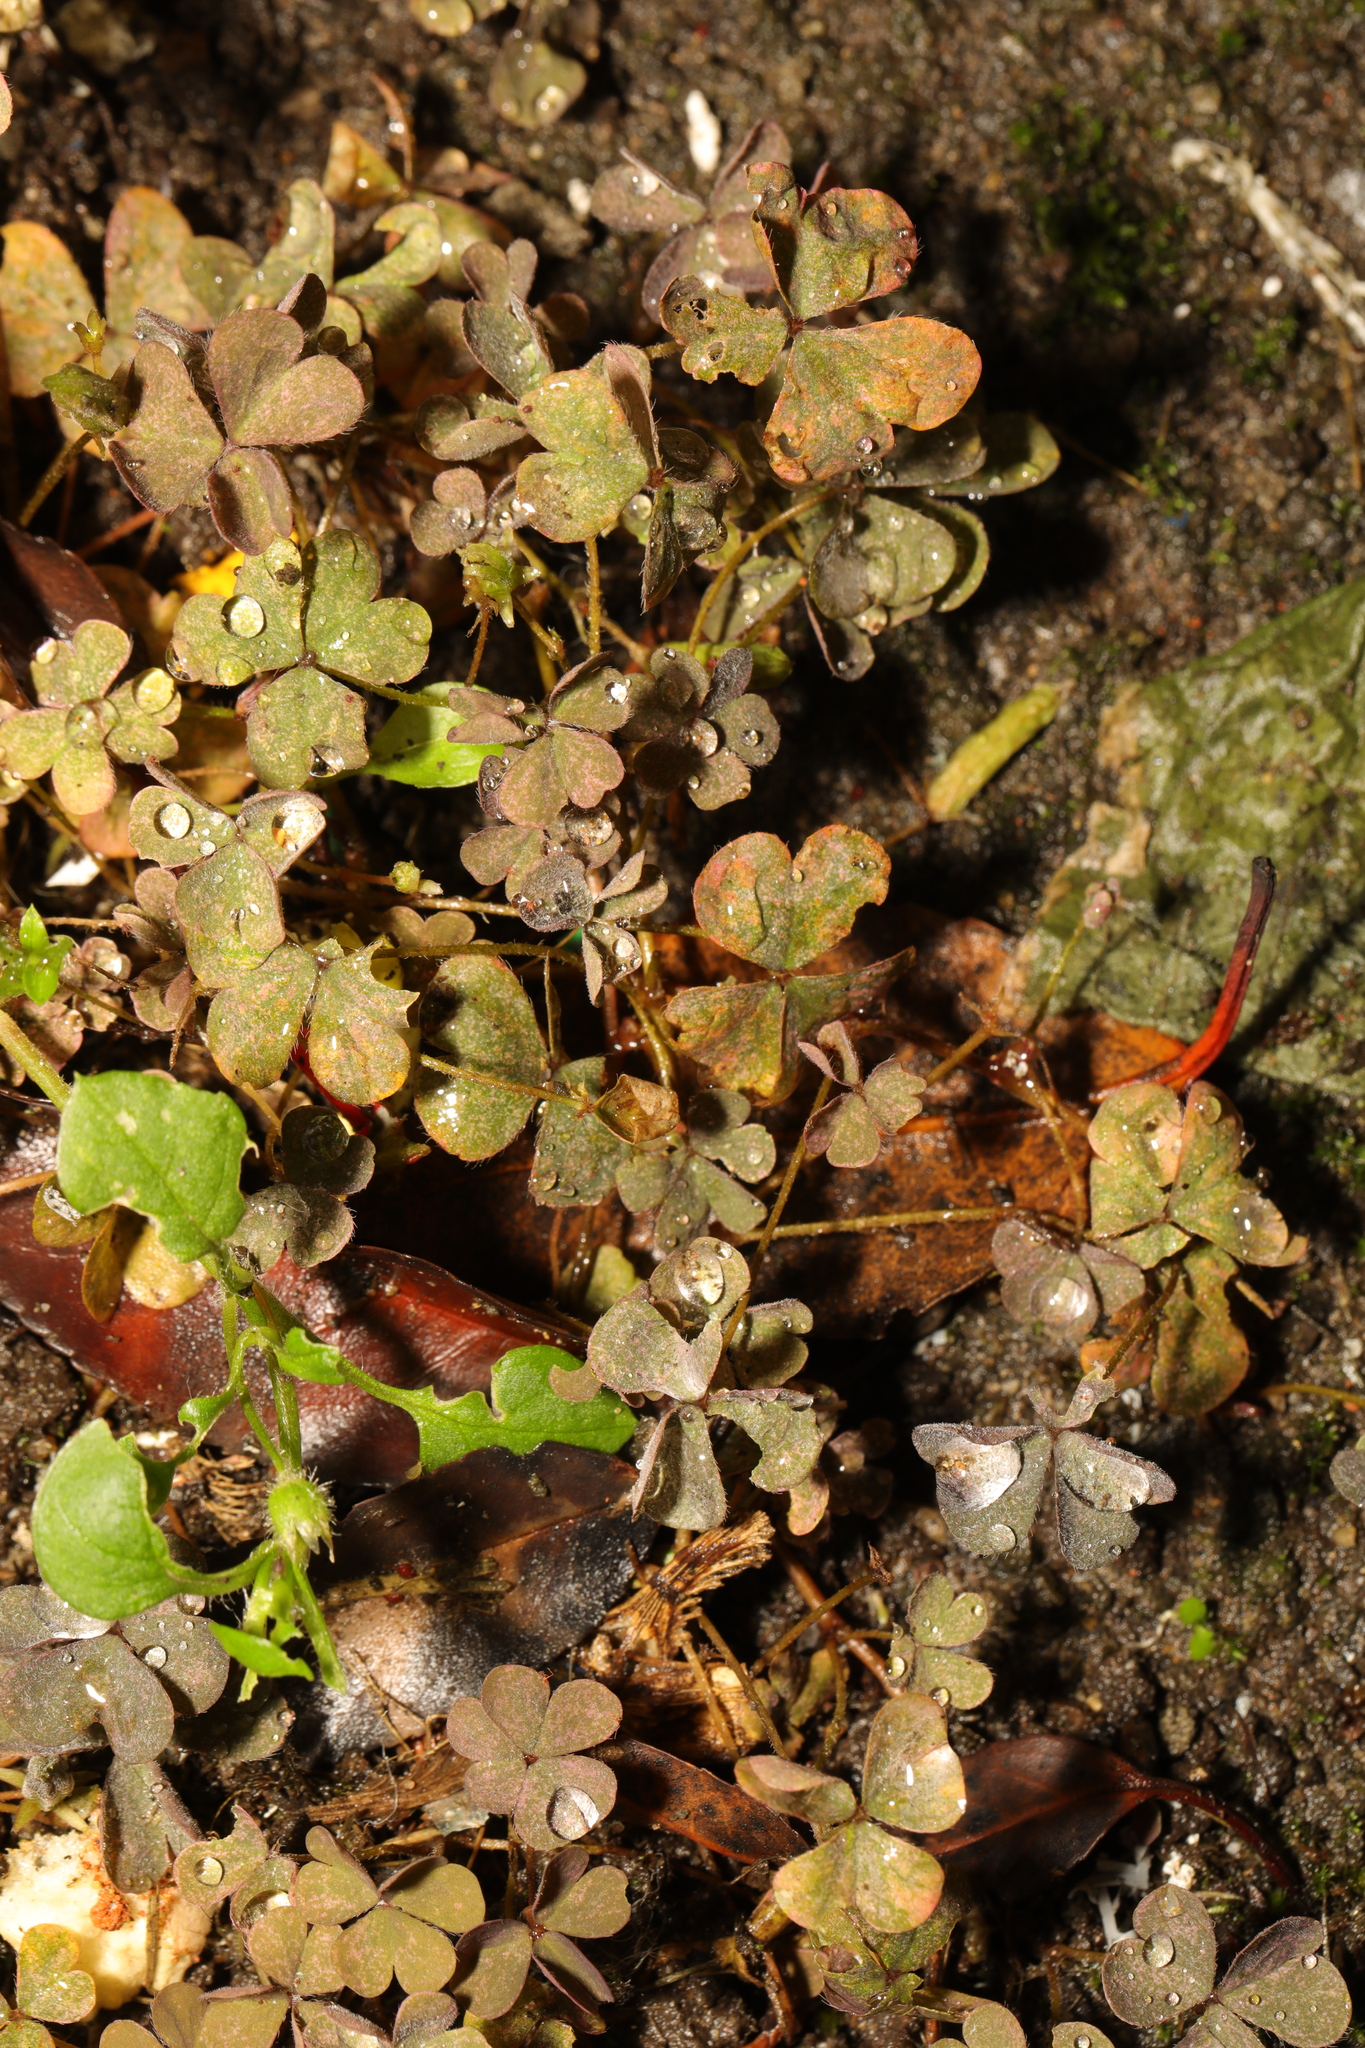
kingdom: Plantae
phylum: Tracheophyta
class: Magnoliopsida
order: Oxalidales
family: Oxalidaceae
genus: Oxalis
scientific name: Oxalis corniculata
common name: Procumbent yellow-sorrel
